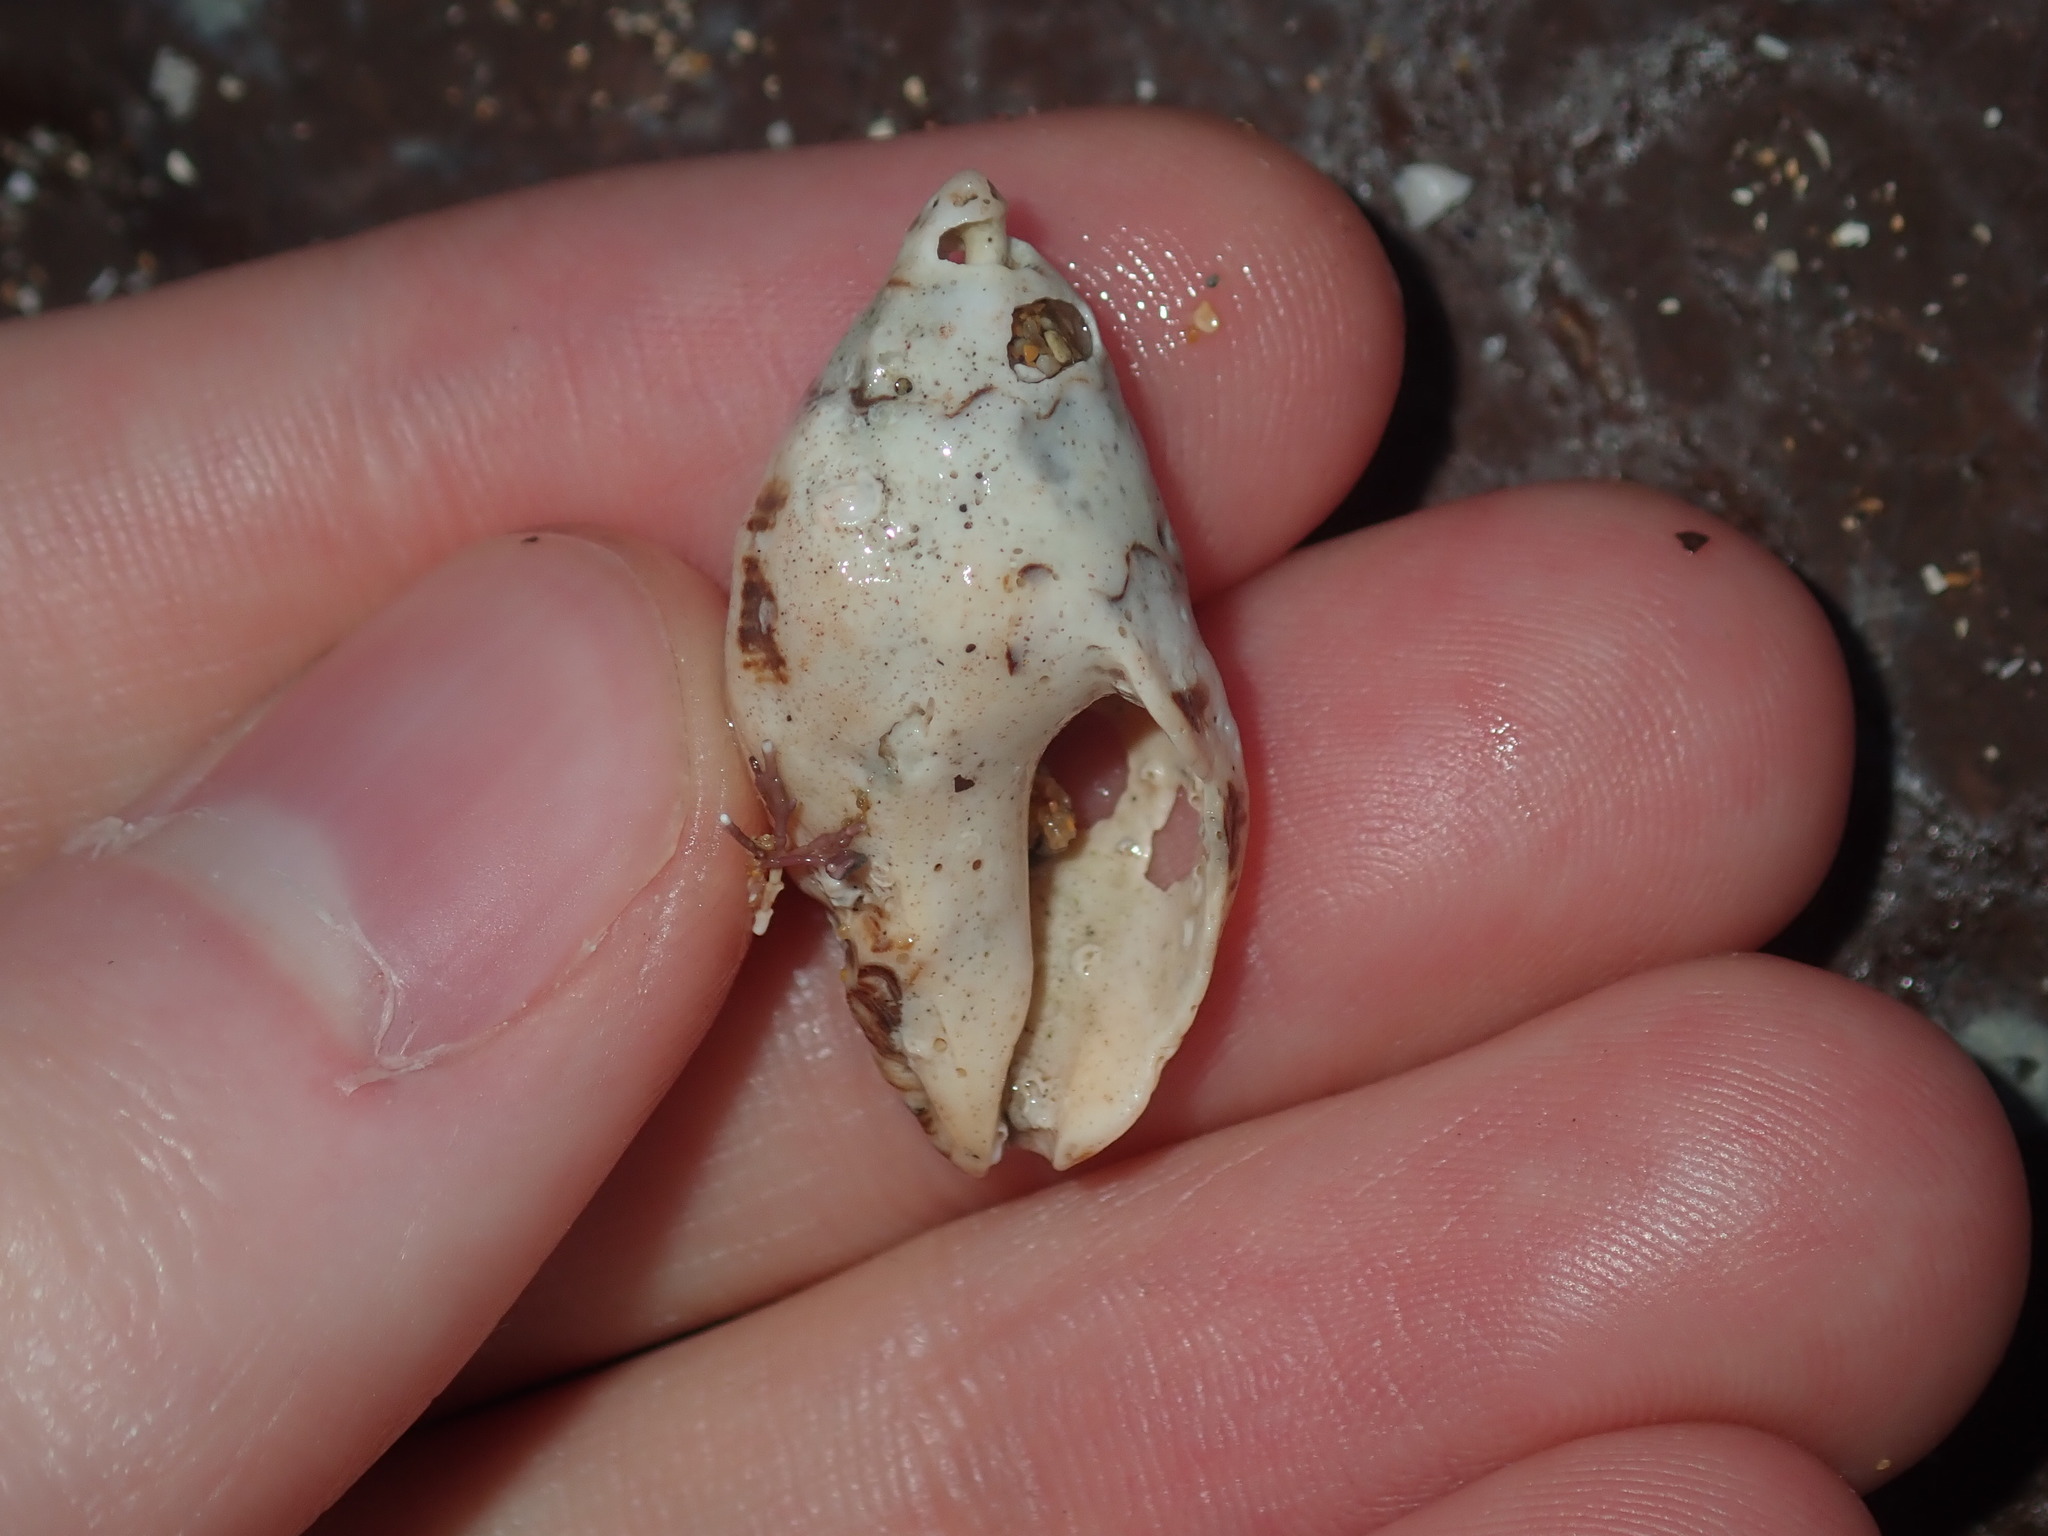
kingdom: Animalia
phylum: Mollusca
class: Gastropoda
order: Neogastropoda
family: Muricidae
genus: Cronia
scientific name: Cronia aurantiaca
